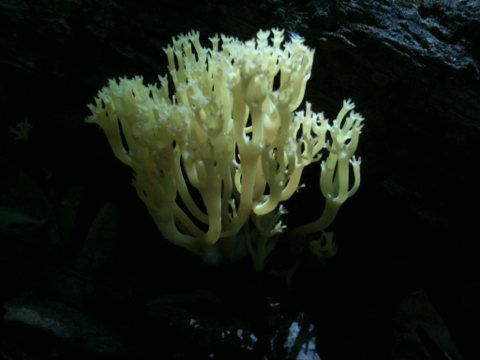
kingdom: Fungi
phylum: Basidiomycota
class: Agaricomycetes
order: Russulales
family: Auriscalpiaceae
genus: Artomyces
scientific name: Artomyces pyxidatus
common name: Crown-tipped coral fungus
